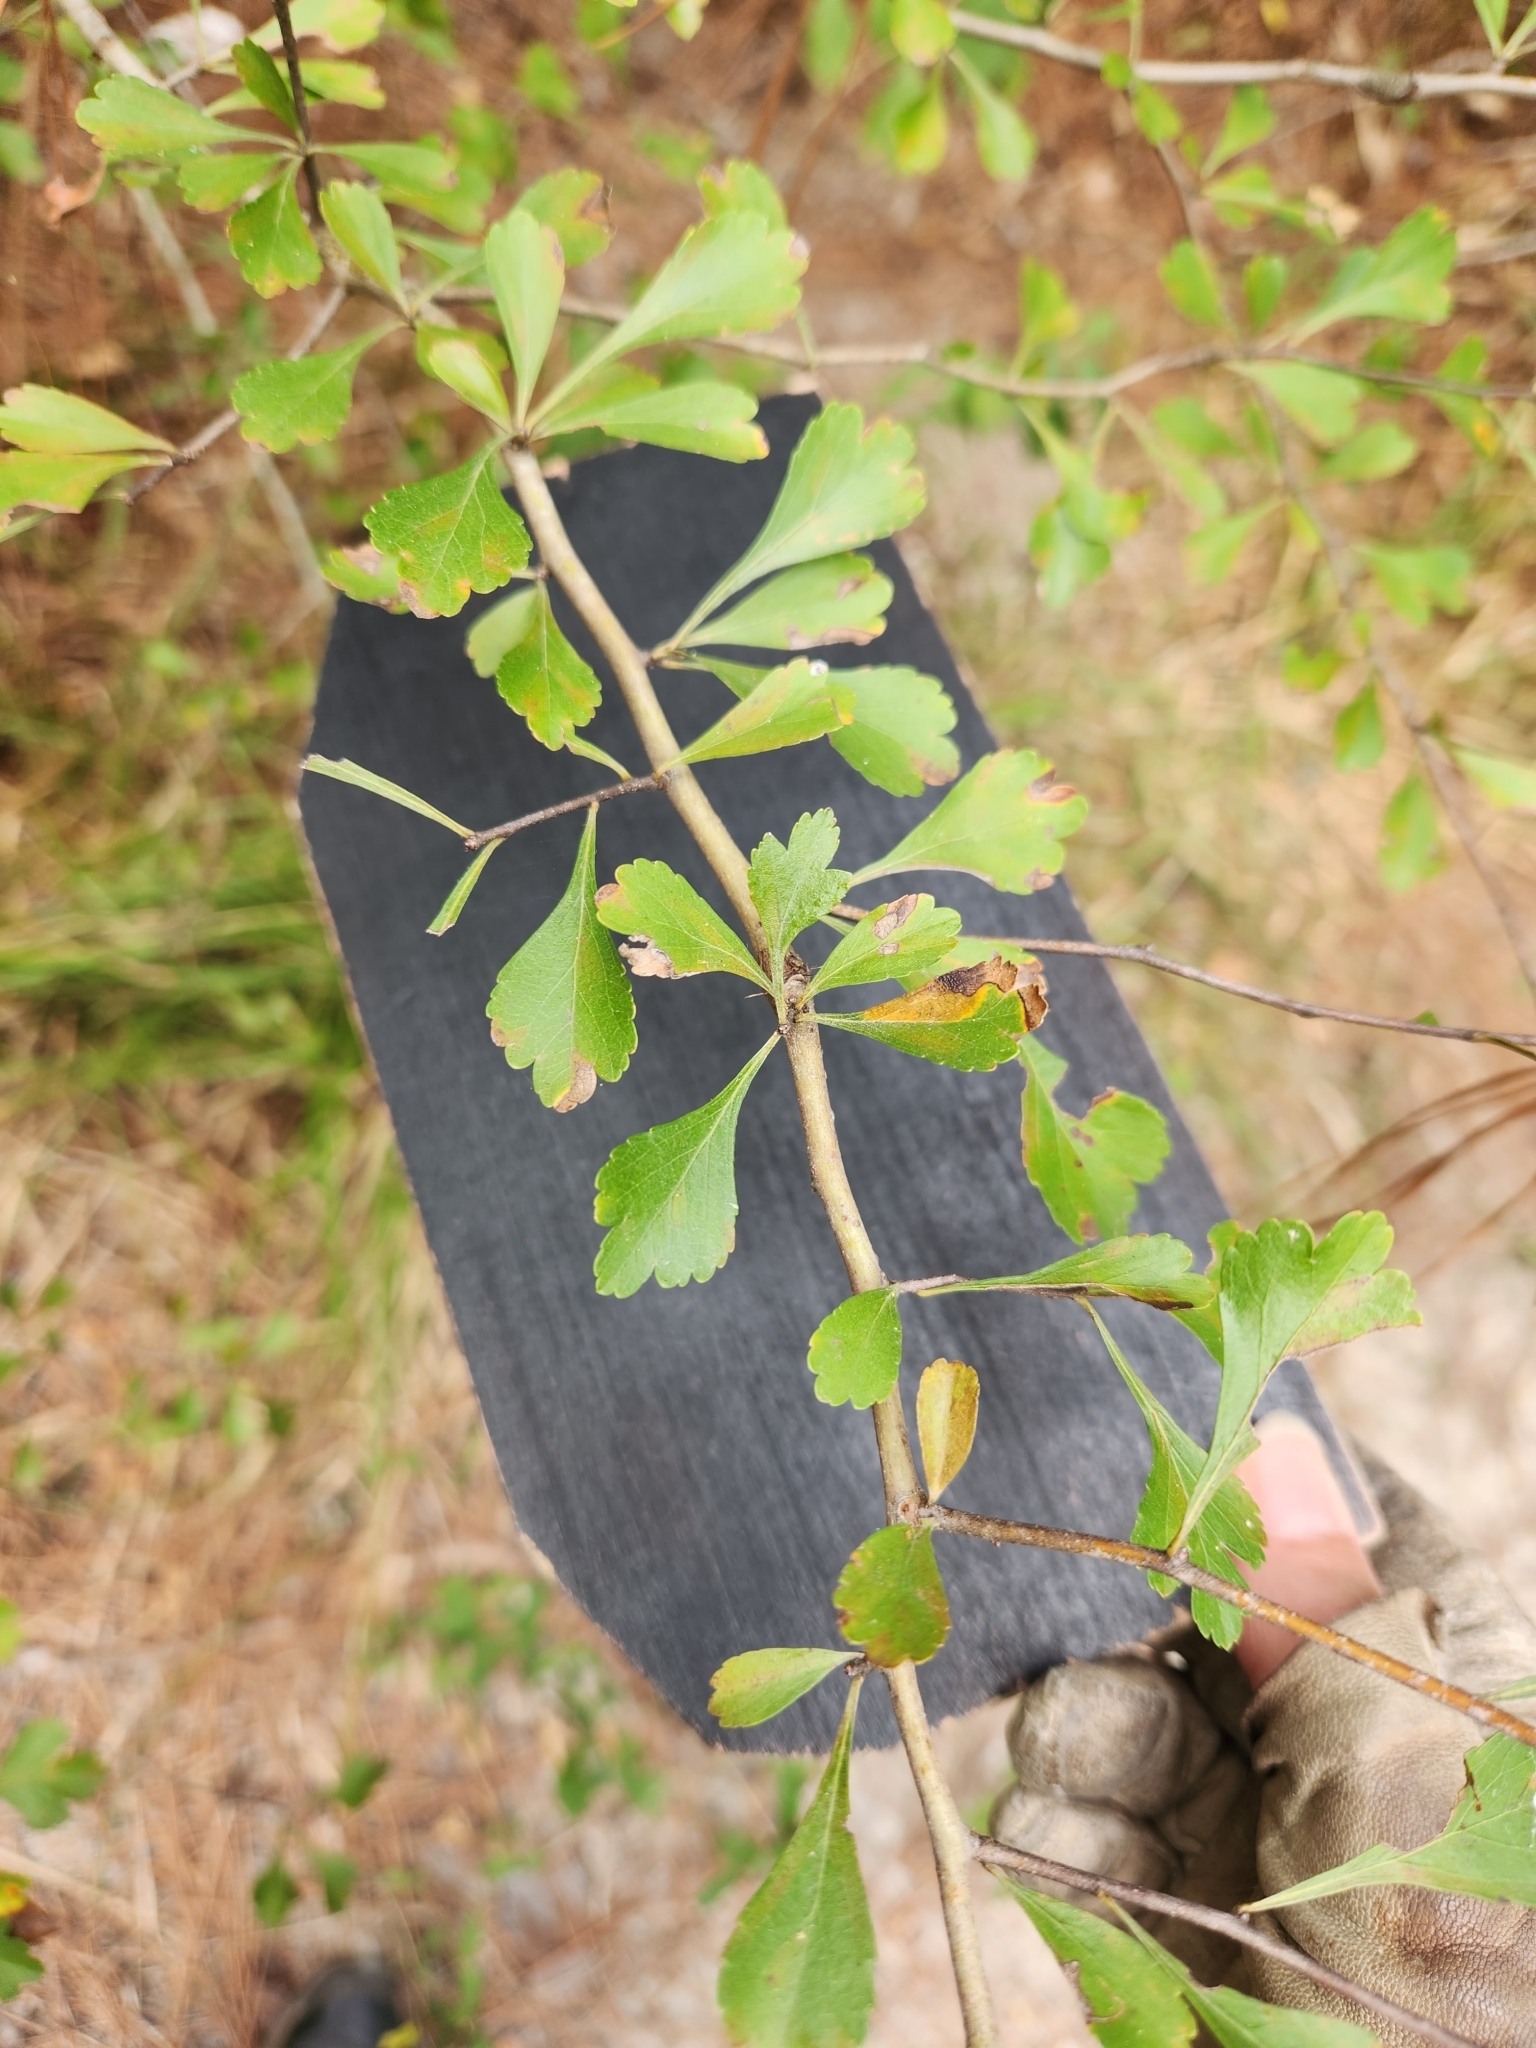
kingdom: Plantae
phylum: Tracheophyta
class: Magnoliopsida
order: Rosales
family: Rosaceae
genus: Crataegus
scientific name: Crataegus spathulata
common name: Littlehip hawthorn
